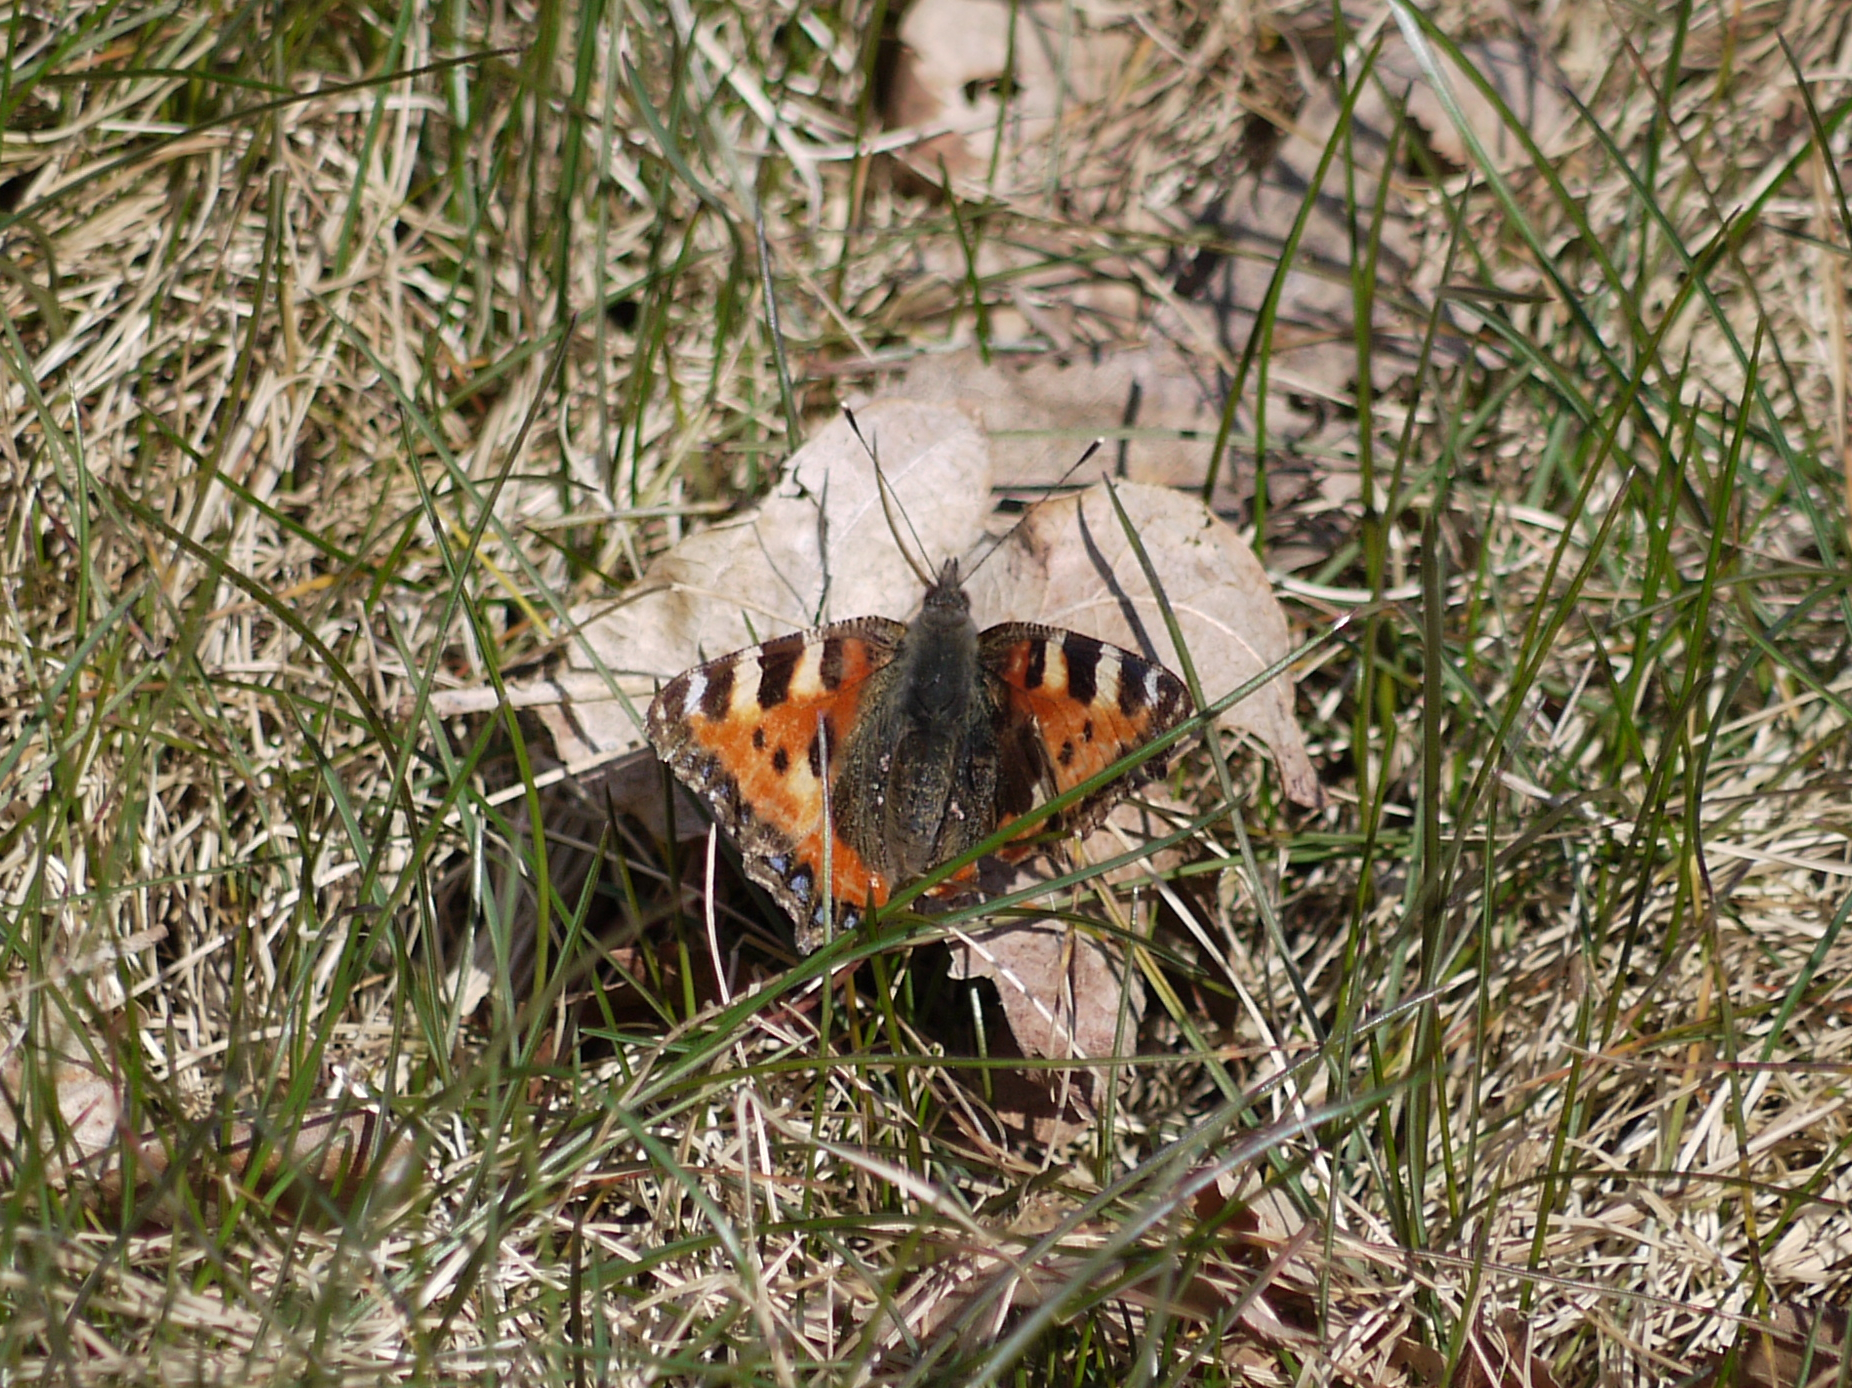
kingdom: Animalia
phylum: Arthropoda
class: Insecta
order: Lepidoptera
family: Nymphalidae
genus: Aglais
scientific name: Aglais urticae
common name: Small tortoiseshell
